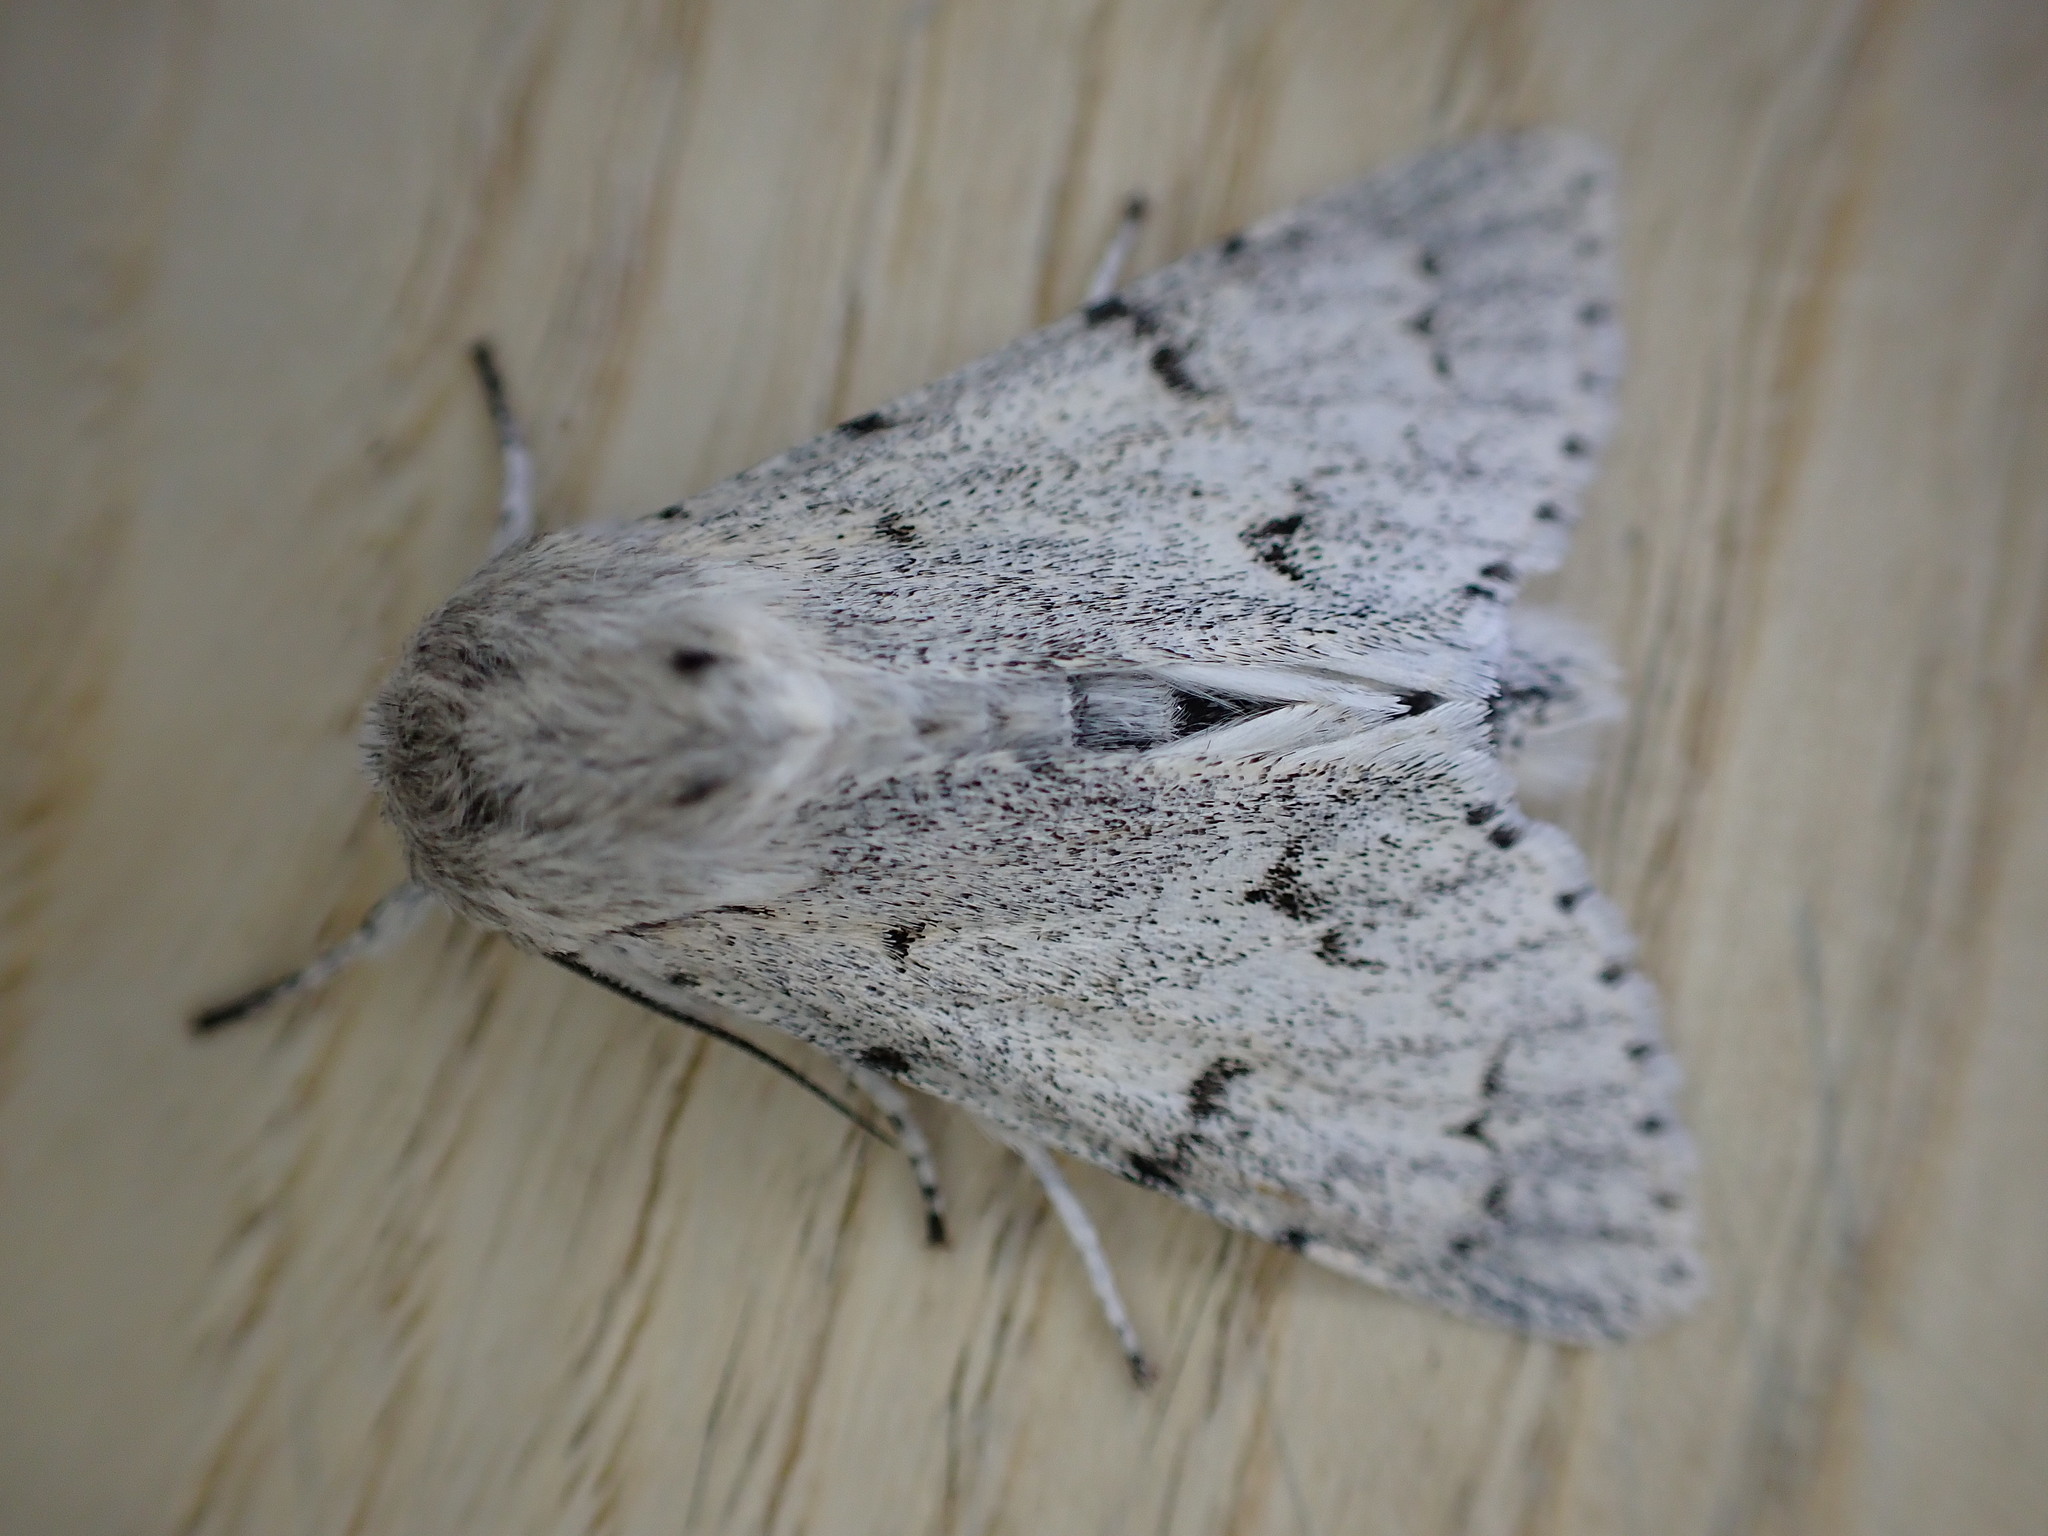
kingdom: Animalia
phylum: Arthropoda
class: Insecta
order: Lepidoptera
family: Noctuidae
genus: Acronicta
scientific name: Acronicta leporina
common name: Miller
